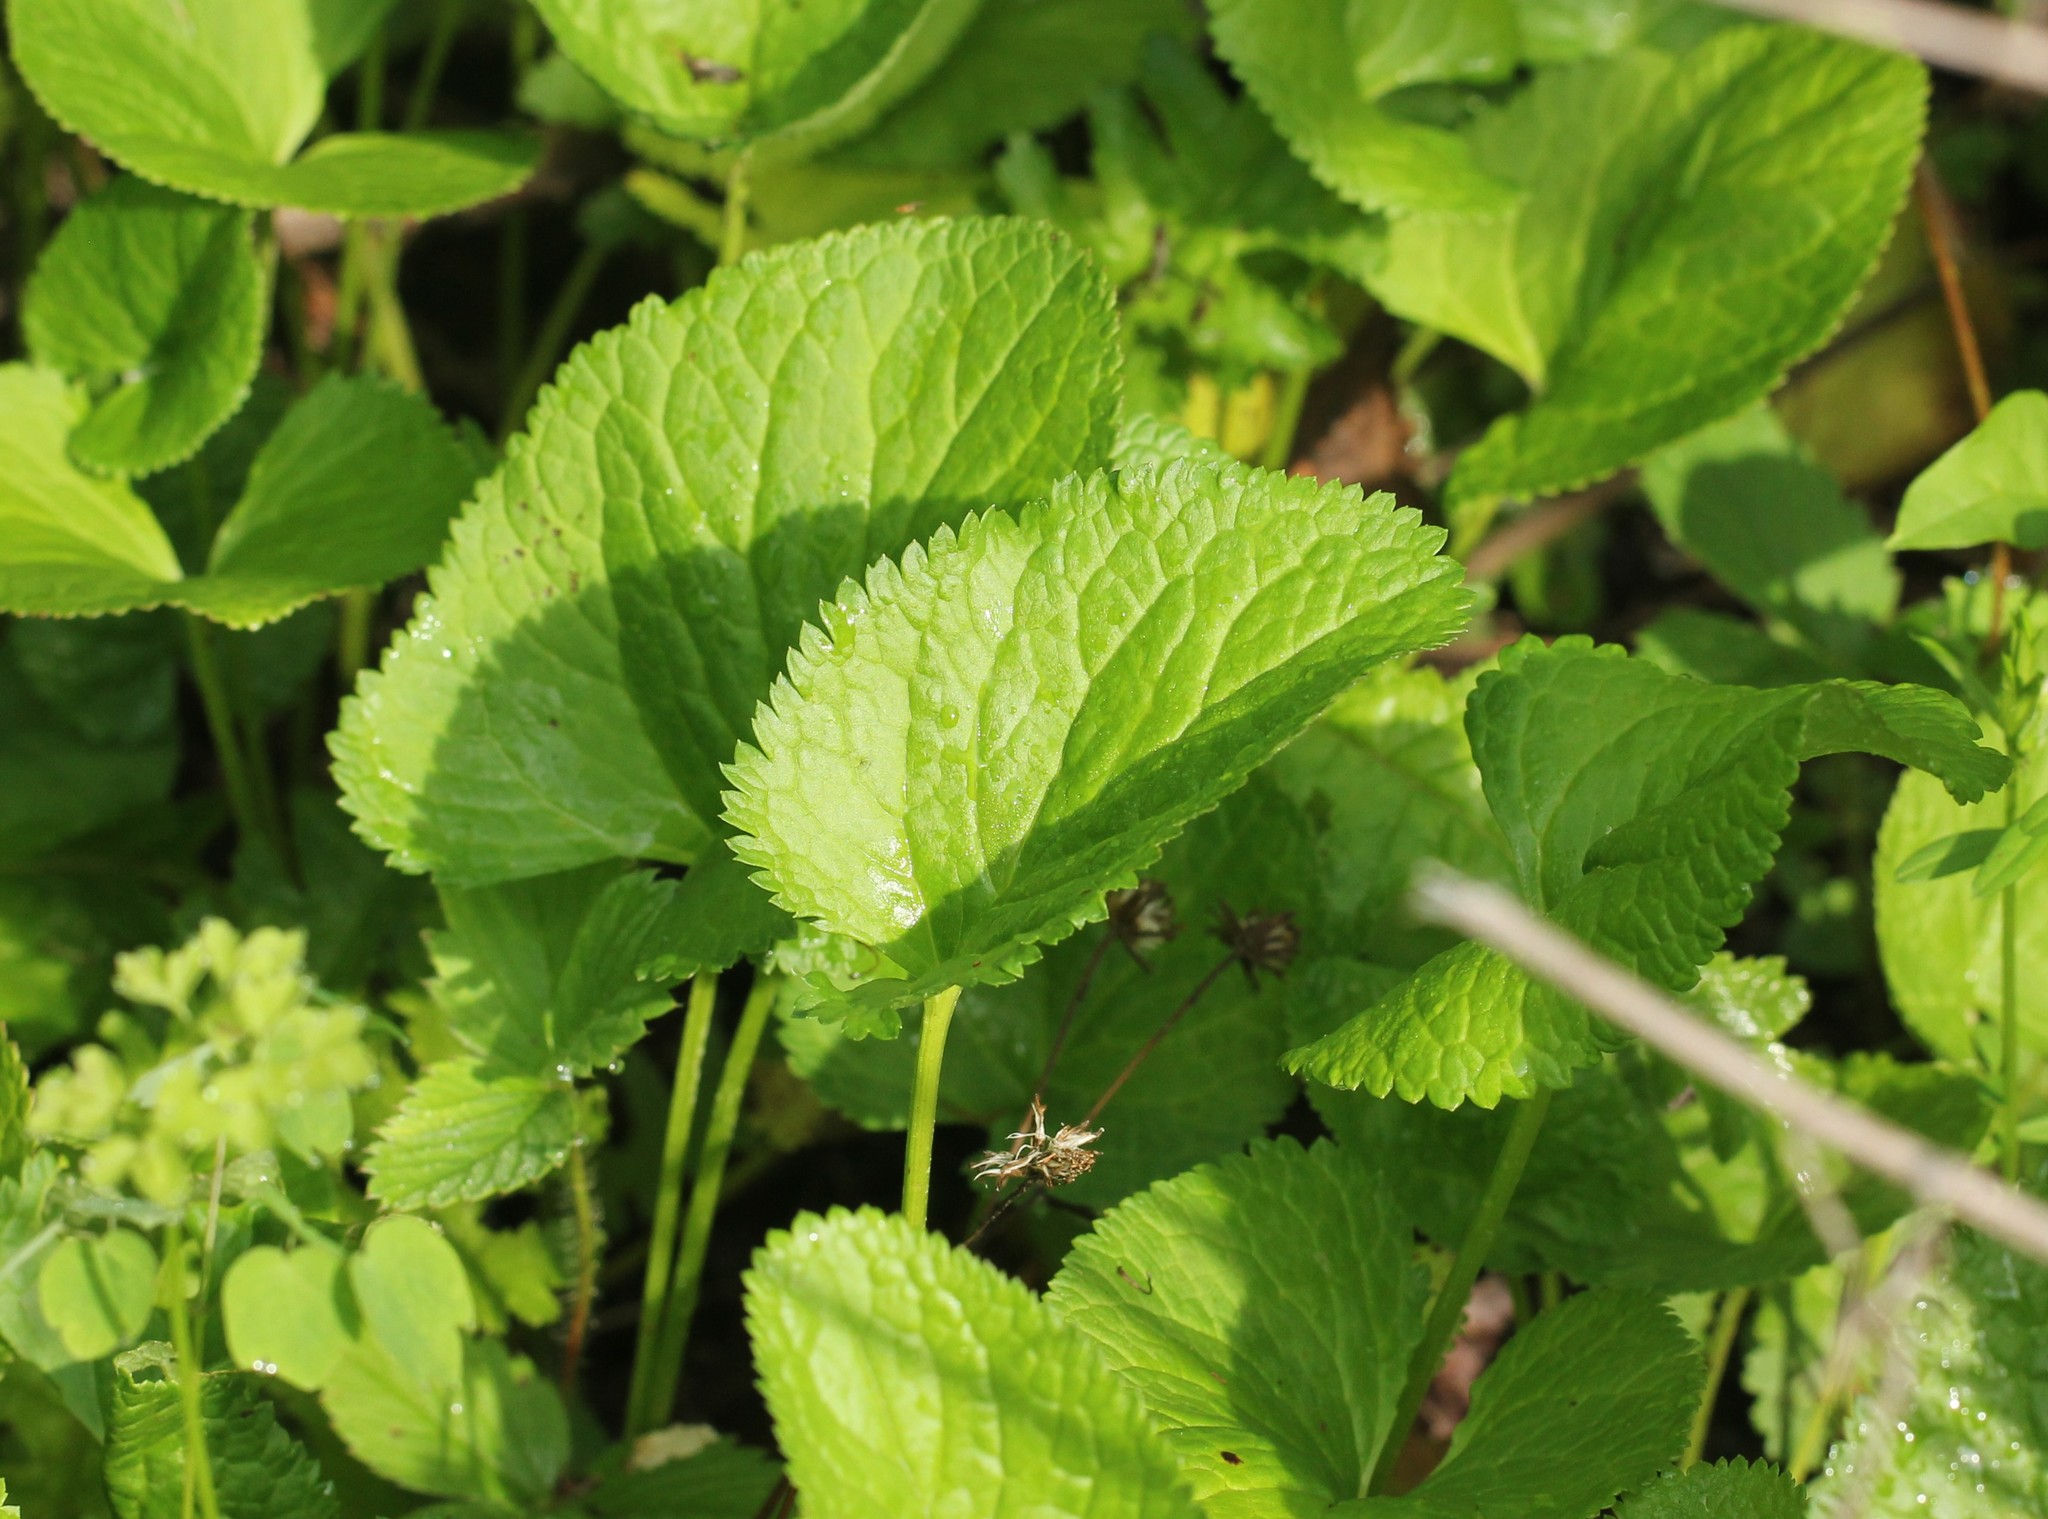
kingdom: Plantae
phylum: Tracheophyta
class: Magnoliopsida
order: Asterales
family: Asteraceae
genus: Packera
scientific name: Packera aurea
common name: Golden groundsel
